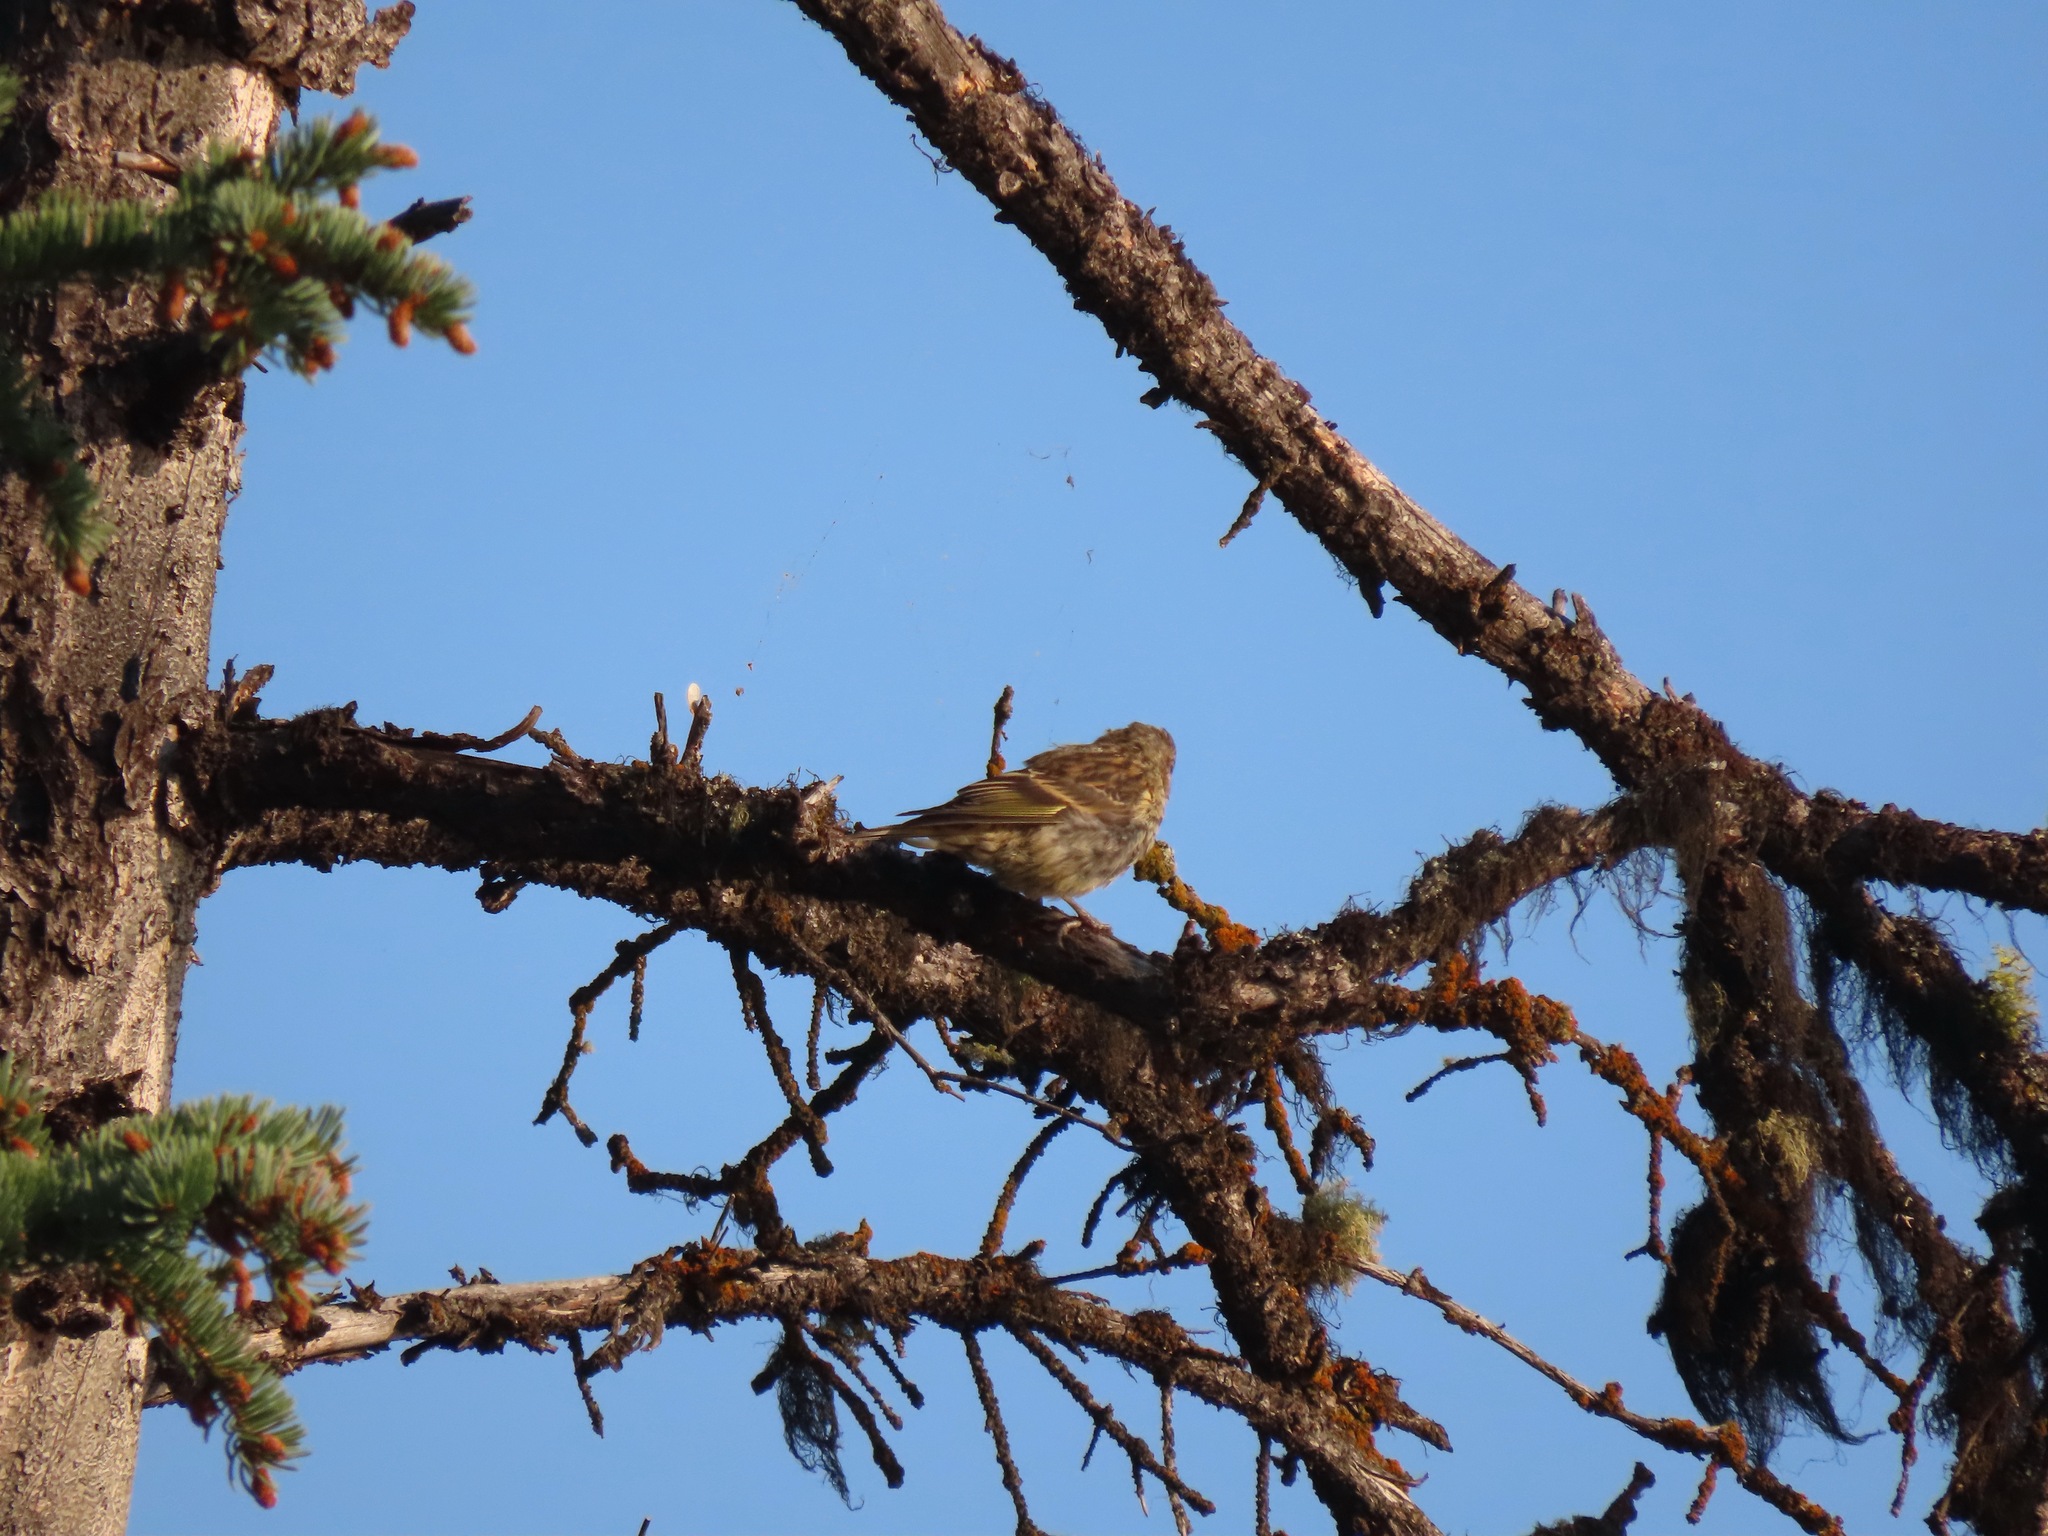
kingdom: Animalia
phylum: Chordata
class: Aves
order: Passeriformes
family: Fringillidae
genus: Spinus
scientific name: Spinus pinus
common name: Pine siskin
